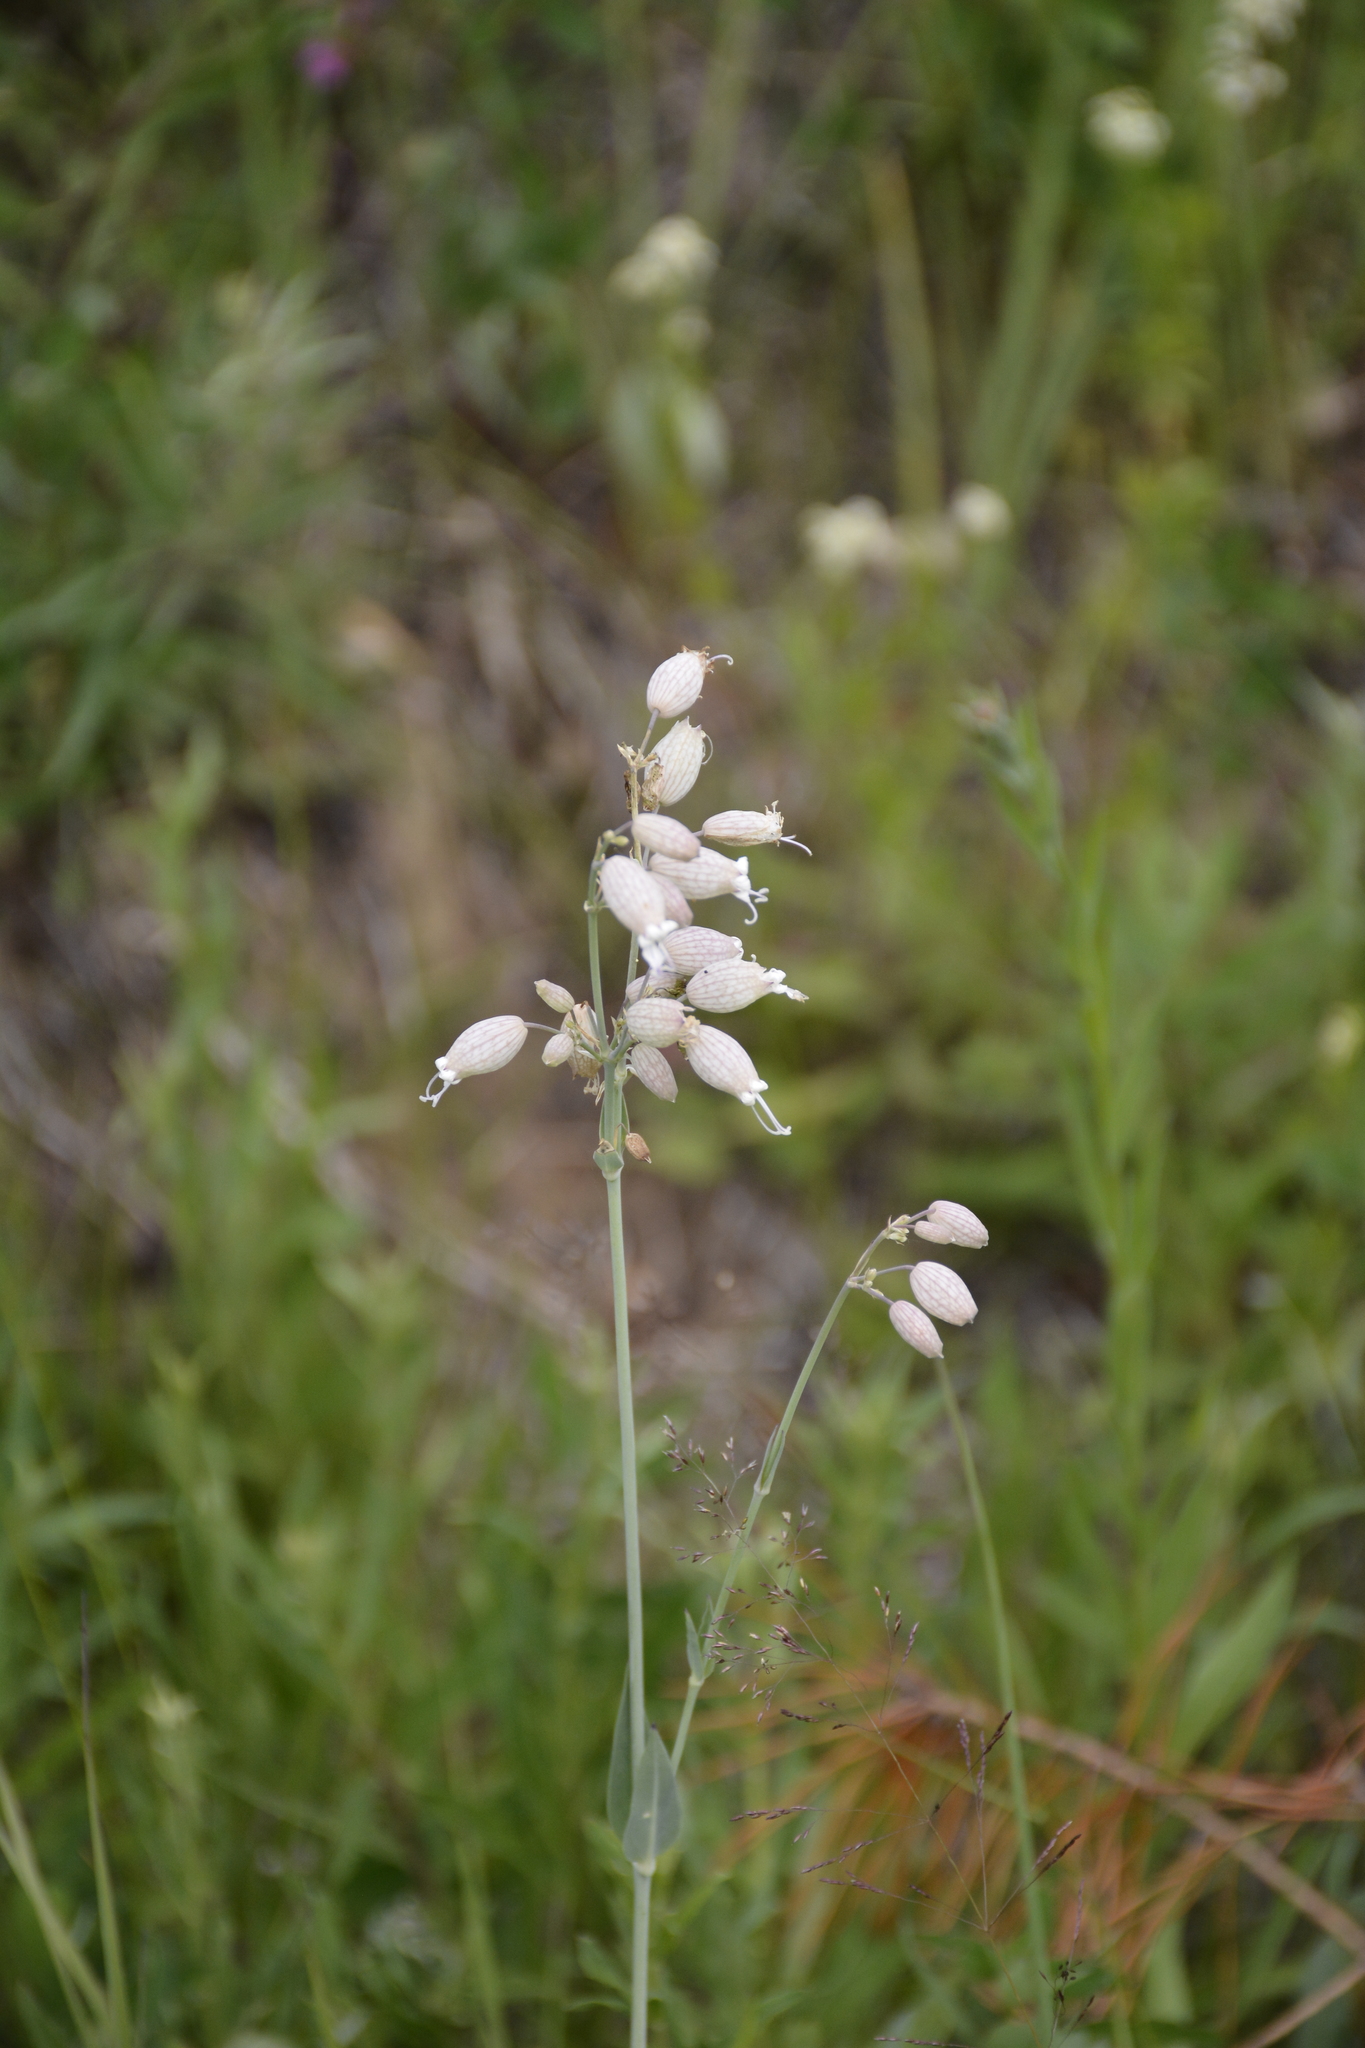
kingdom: Plantae
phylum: Tracheophyta
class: Magnoliopsida
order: Caryophyllales
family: Caryophyllaceae
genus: Silene
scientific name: Silene vulgaris
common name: Bladder campion
